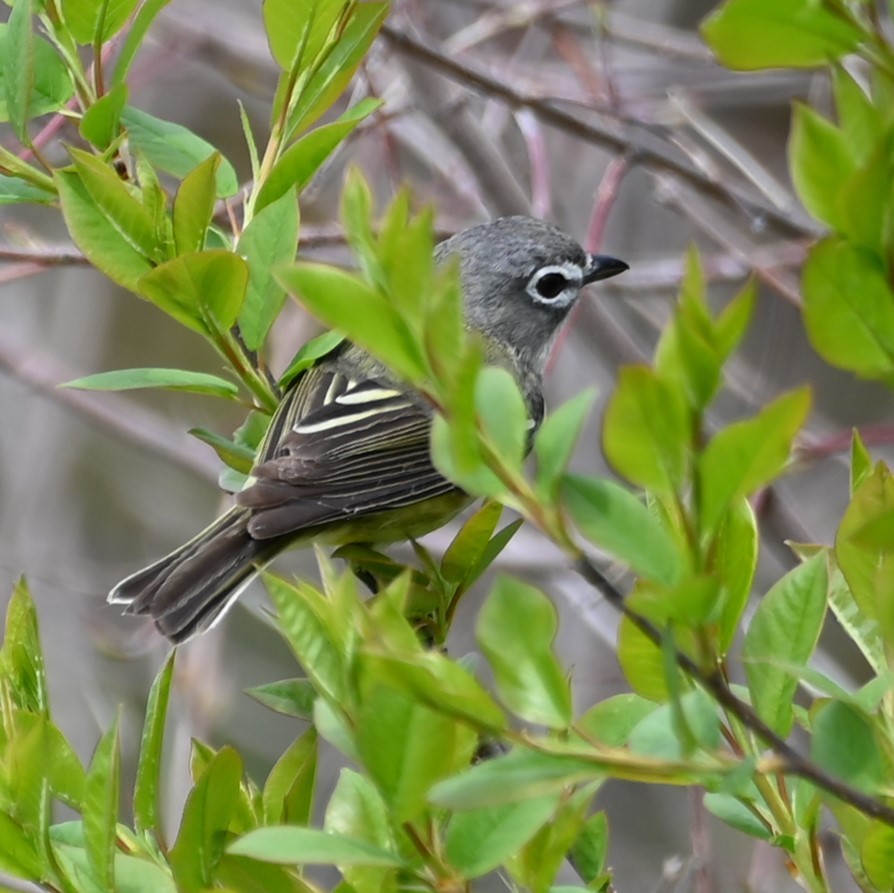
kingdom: Animalia
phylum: Chordata
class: Aves
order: Passeriformes
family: Vireonidae
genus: Vireo
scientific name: Vireo solitarius
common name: Blue-headed vireo
